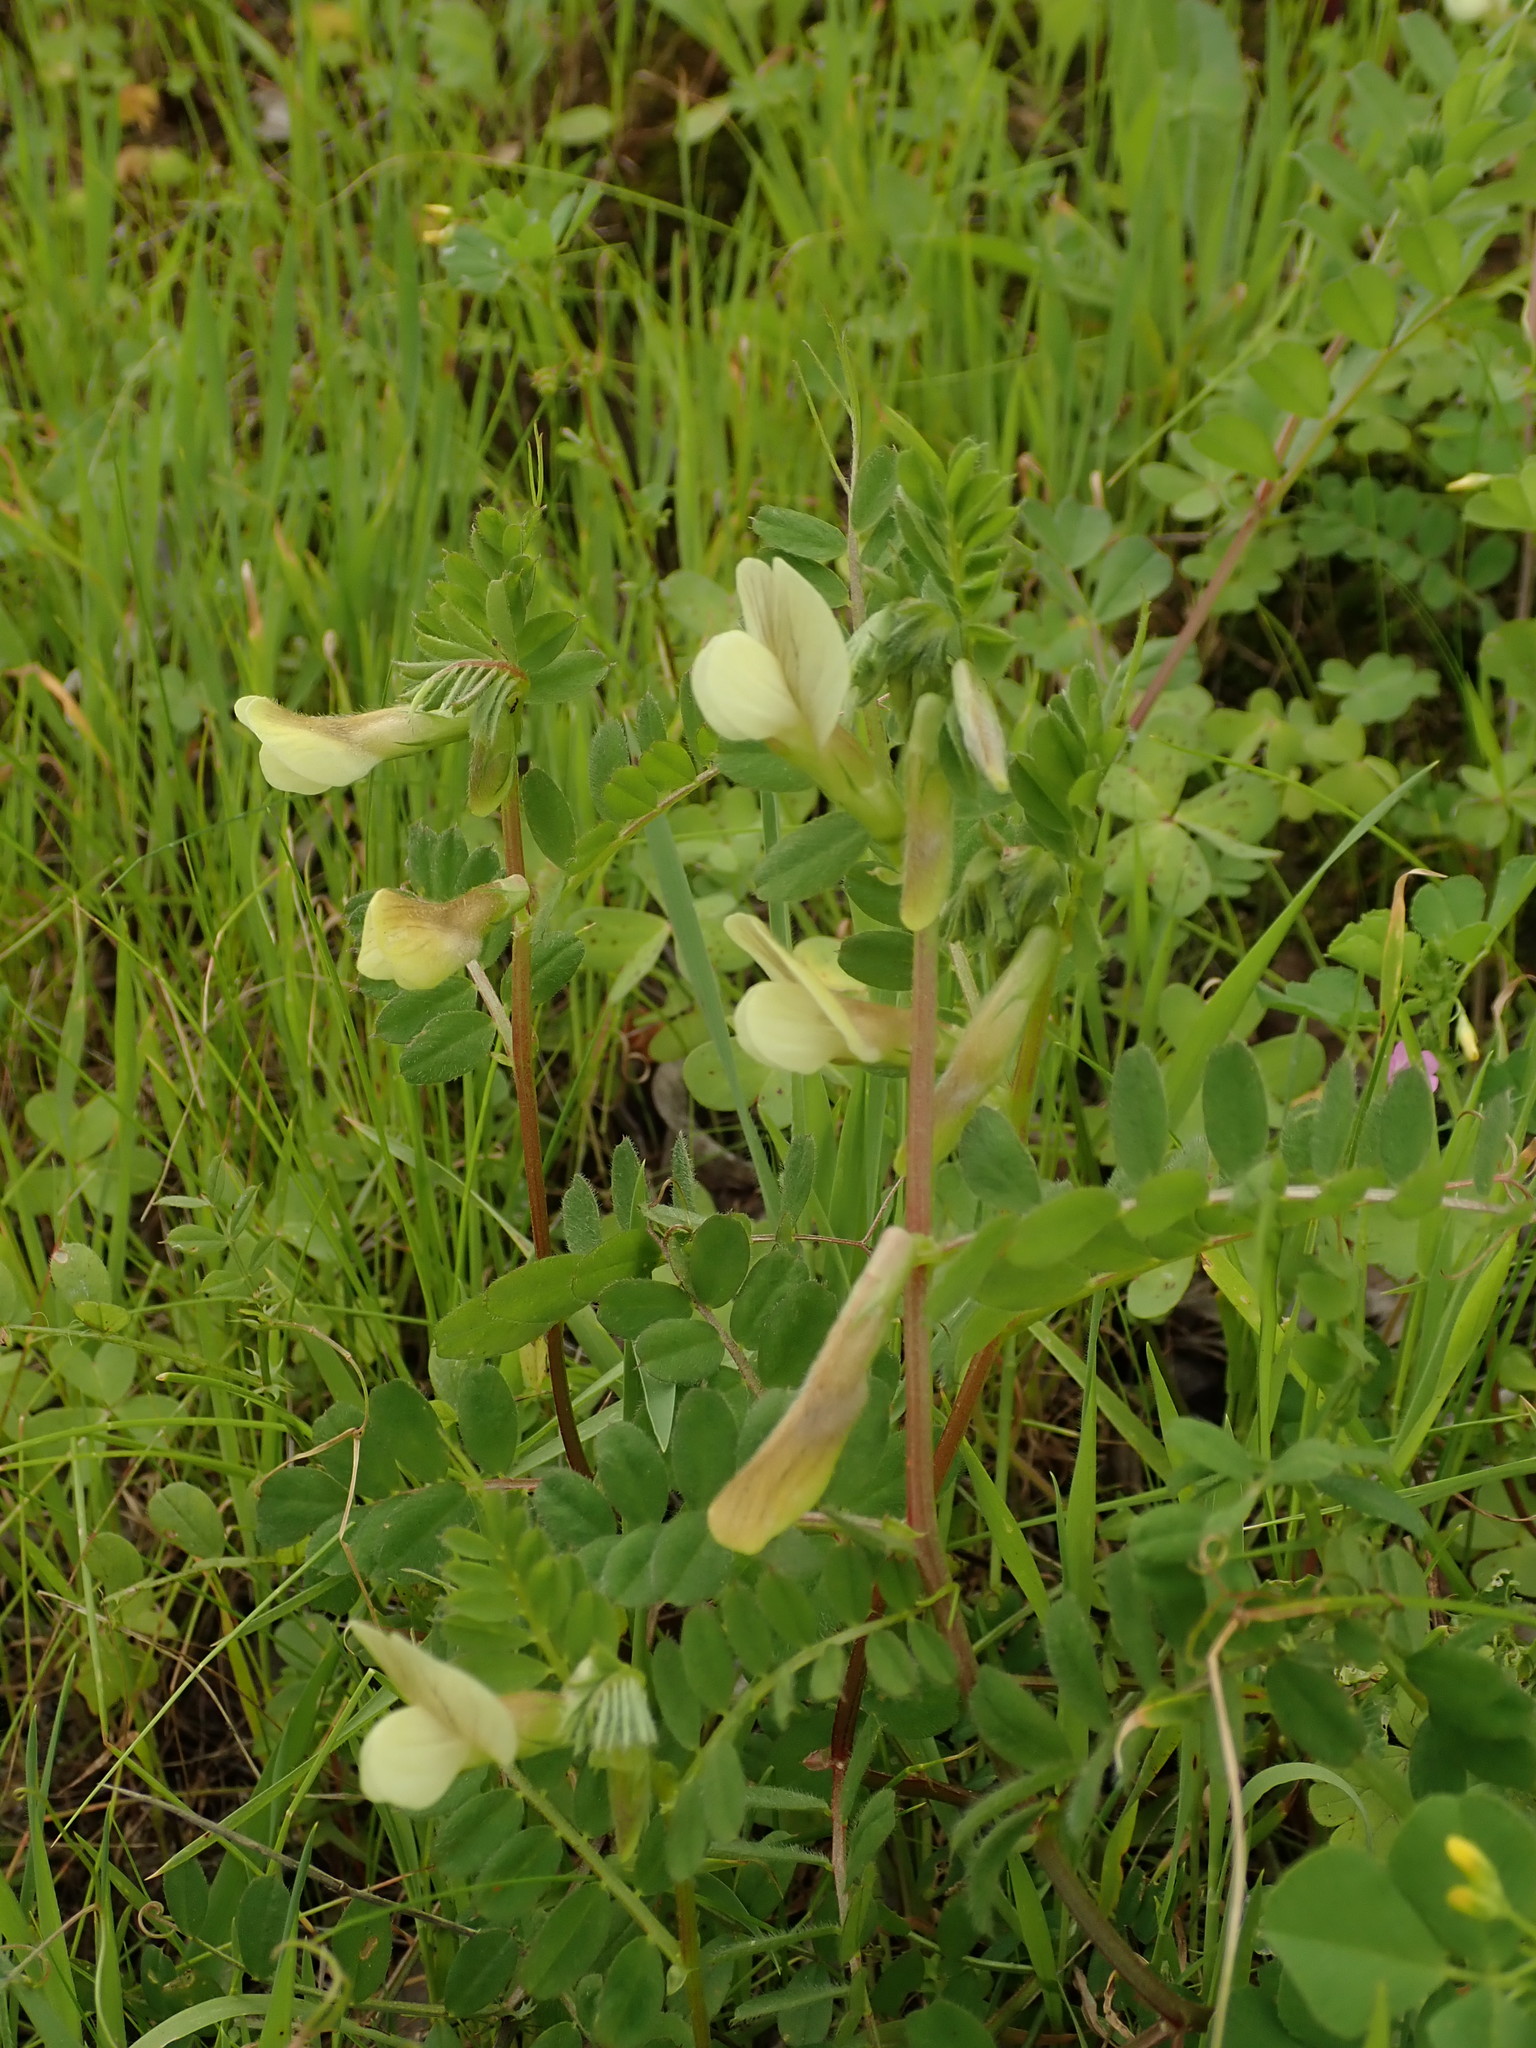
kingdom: Plantae
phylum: Tracheophyta
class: Magnoliopsida
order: Fabales
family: Fabaceae
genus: Vicia
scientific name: Vicia hybrida
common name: Hairy yellow vetch
